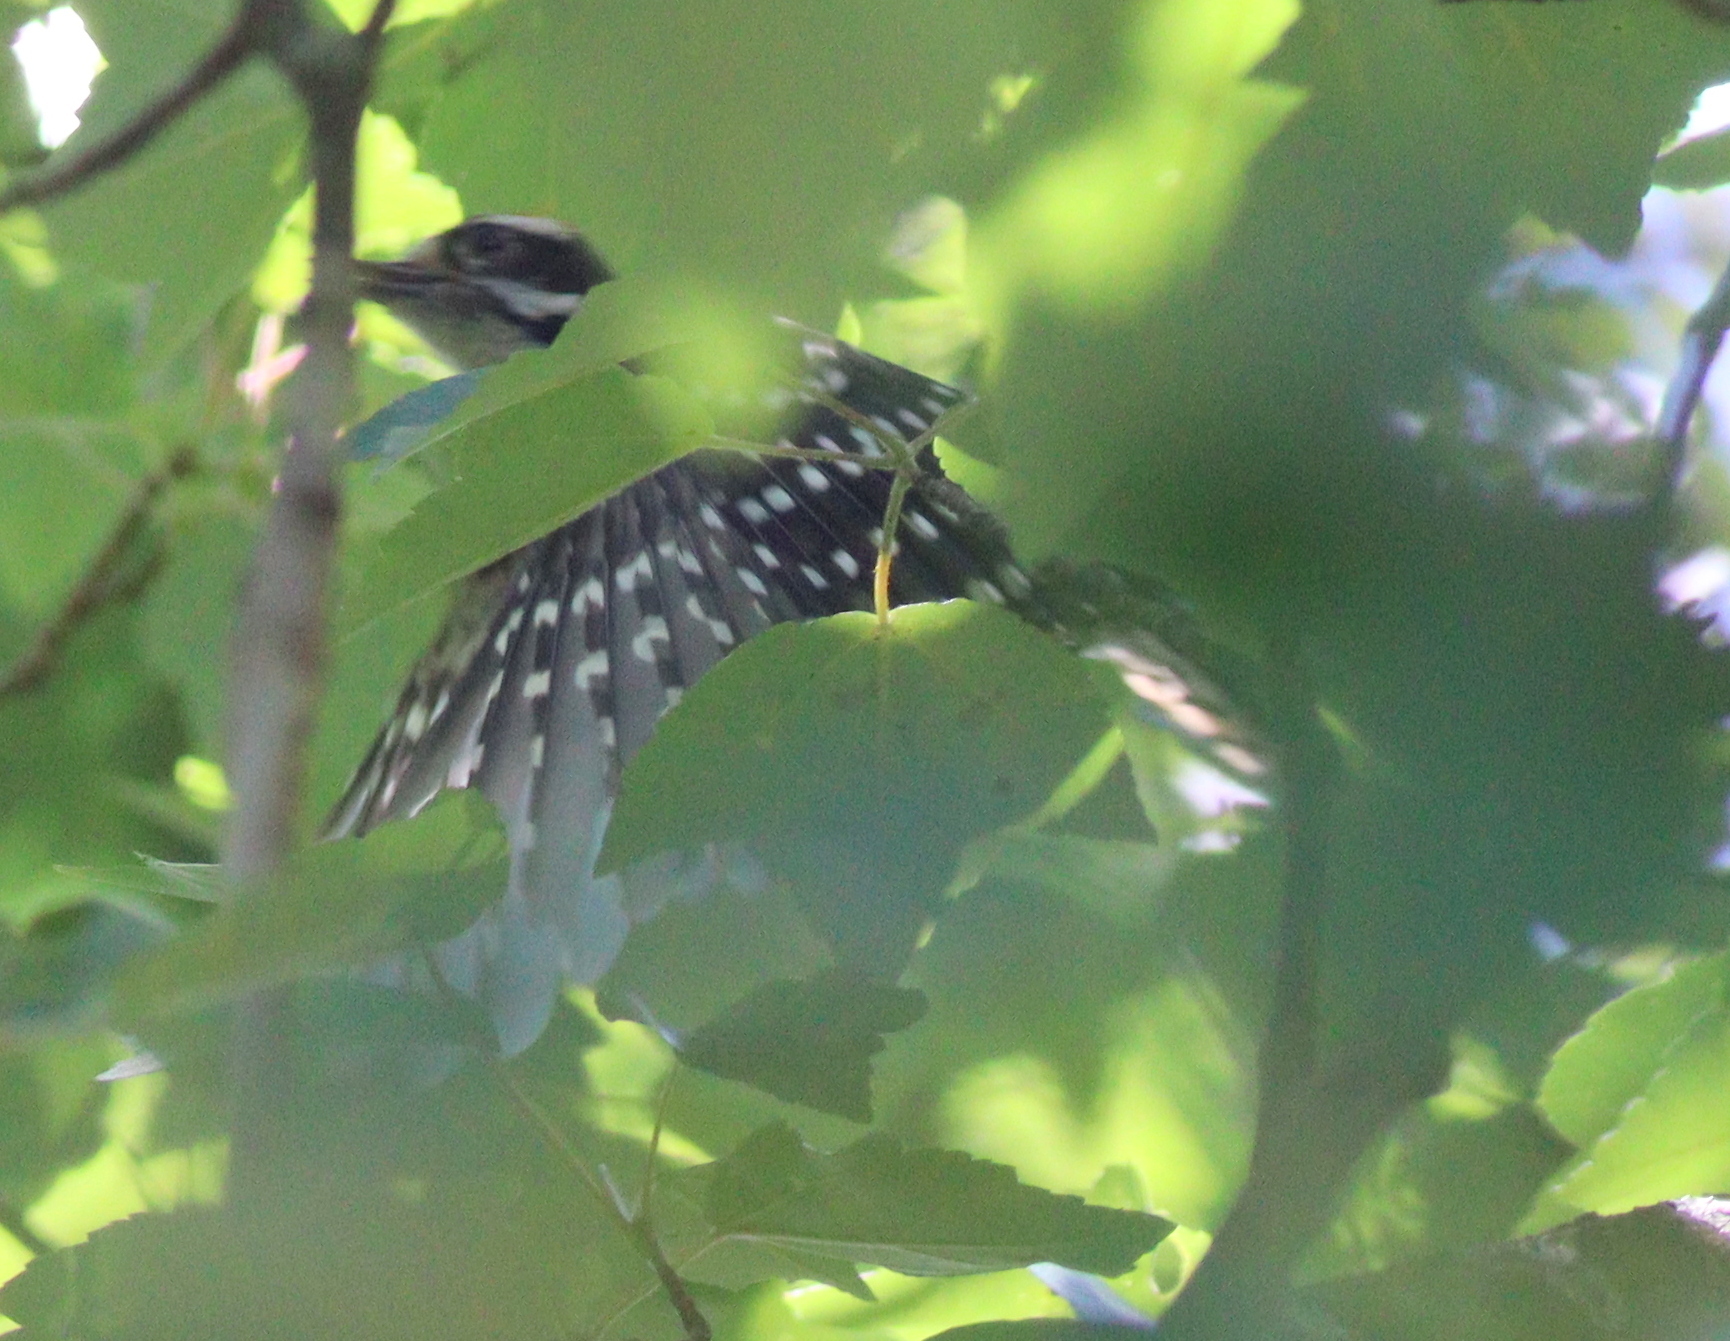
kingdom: Animalia
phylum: Chordata
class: Aves
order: Piciformes
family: Picidae
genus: Dryobates
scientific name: Dryobates pubescens
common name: Downy woodpecker
